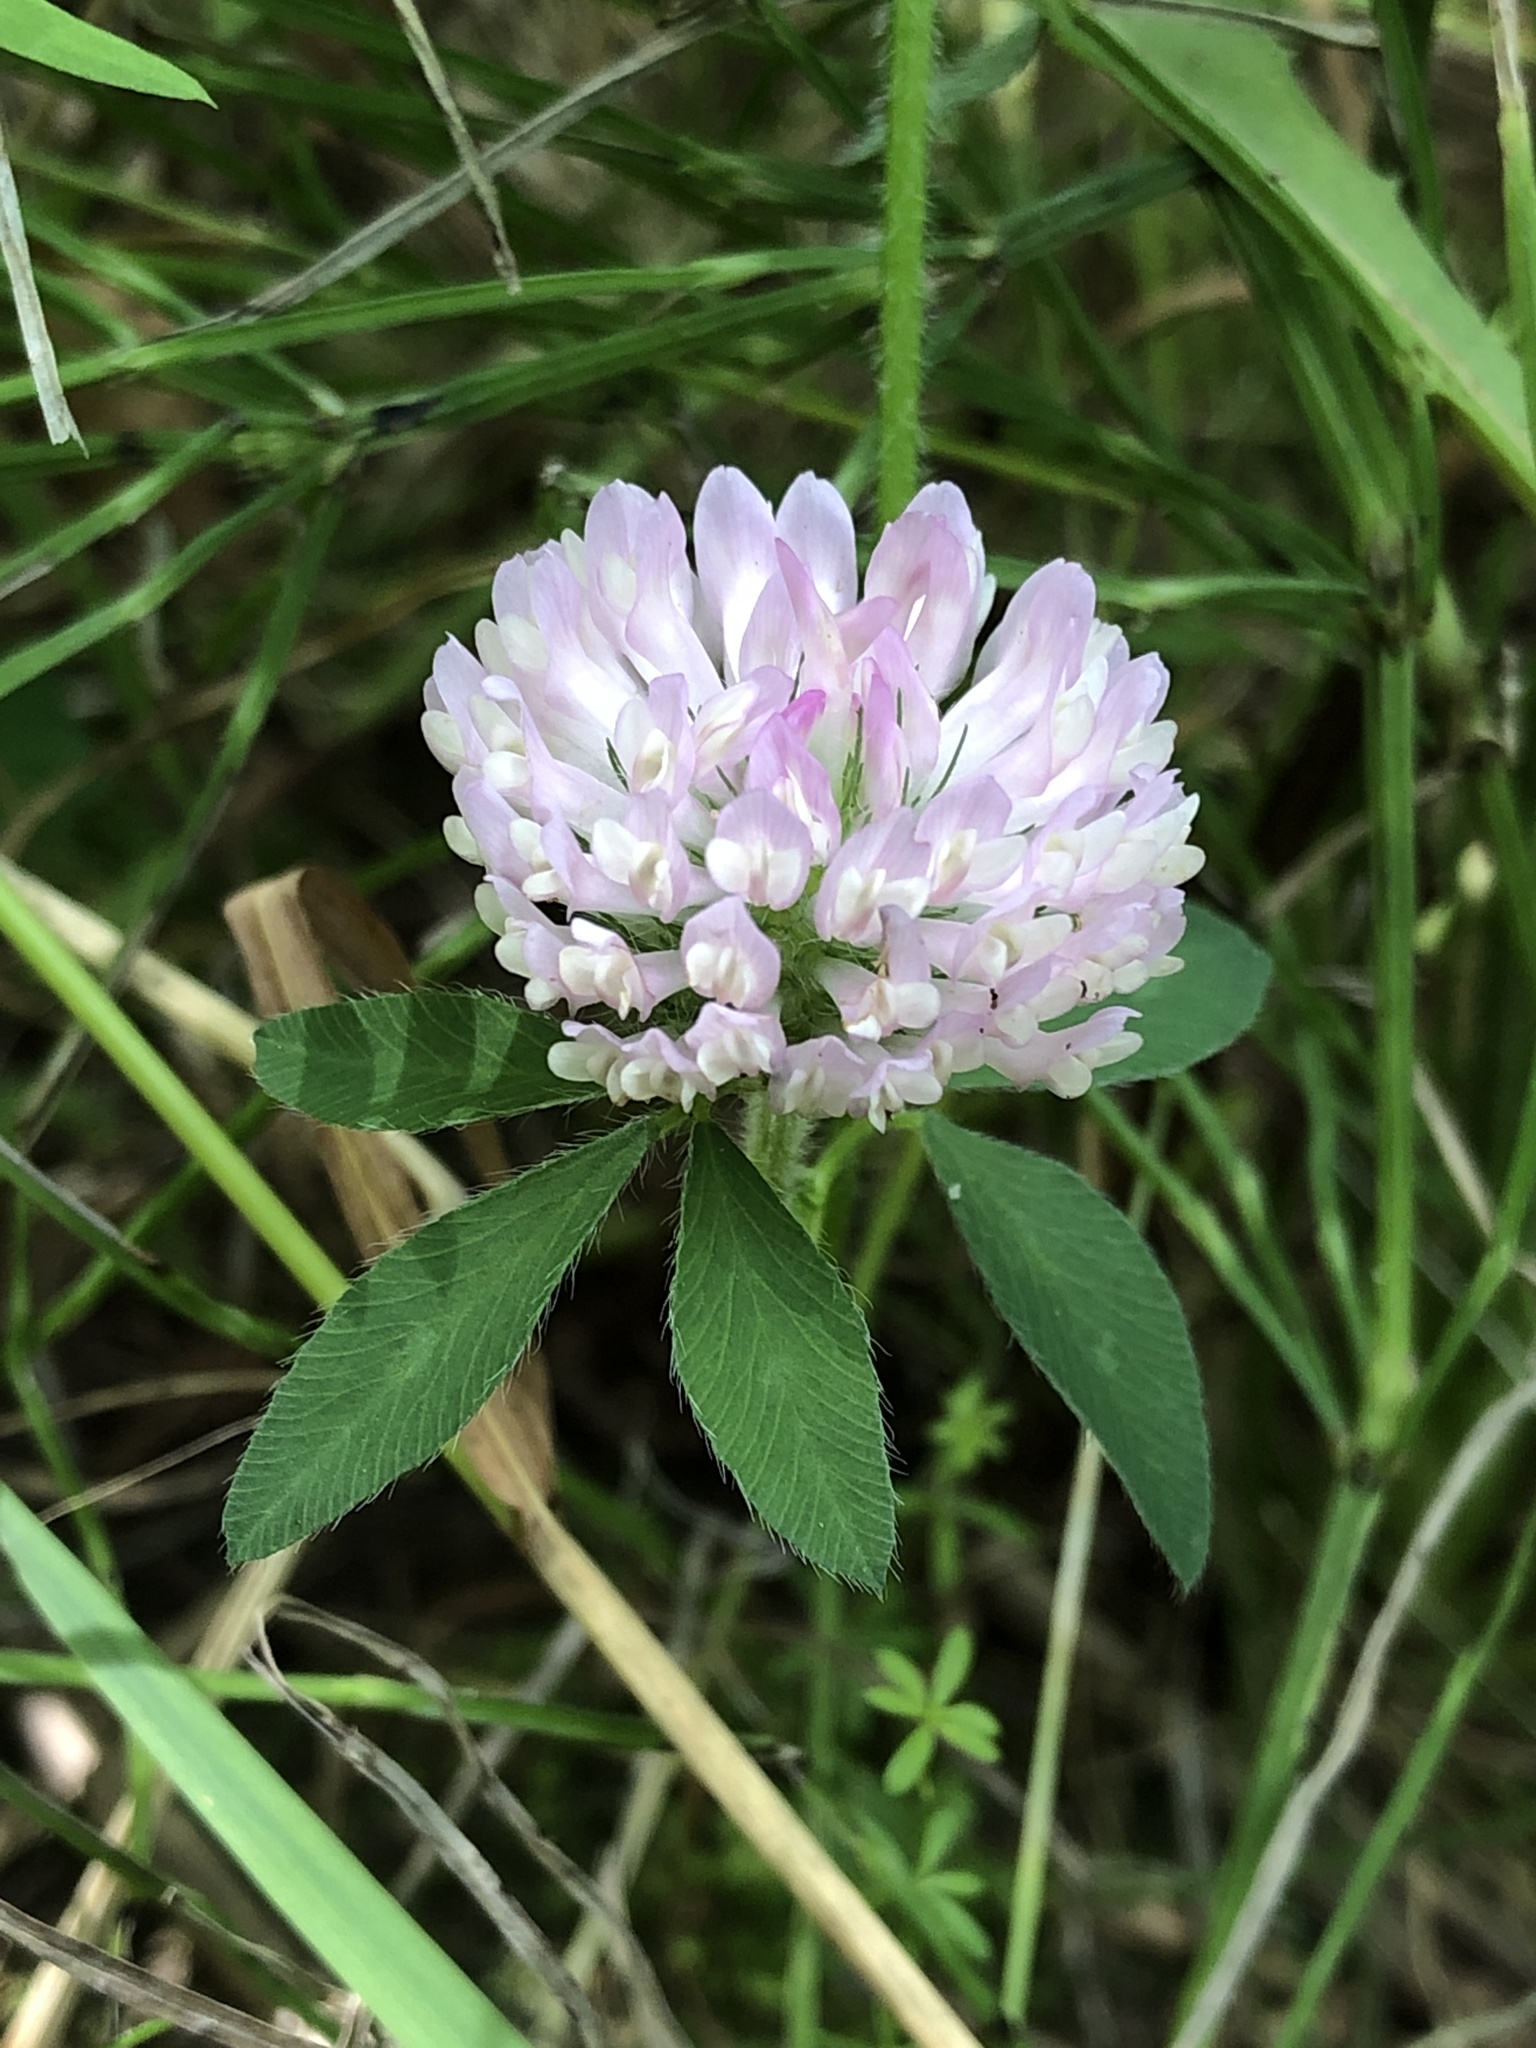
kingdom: Plantae
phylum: Tracheophyta
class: Magnoliopsida
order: Fabales
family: Fabaceae
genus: Trifolium
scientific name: Trifolium pratense
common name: Red clover
